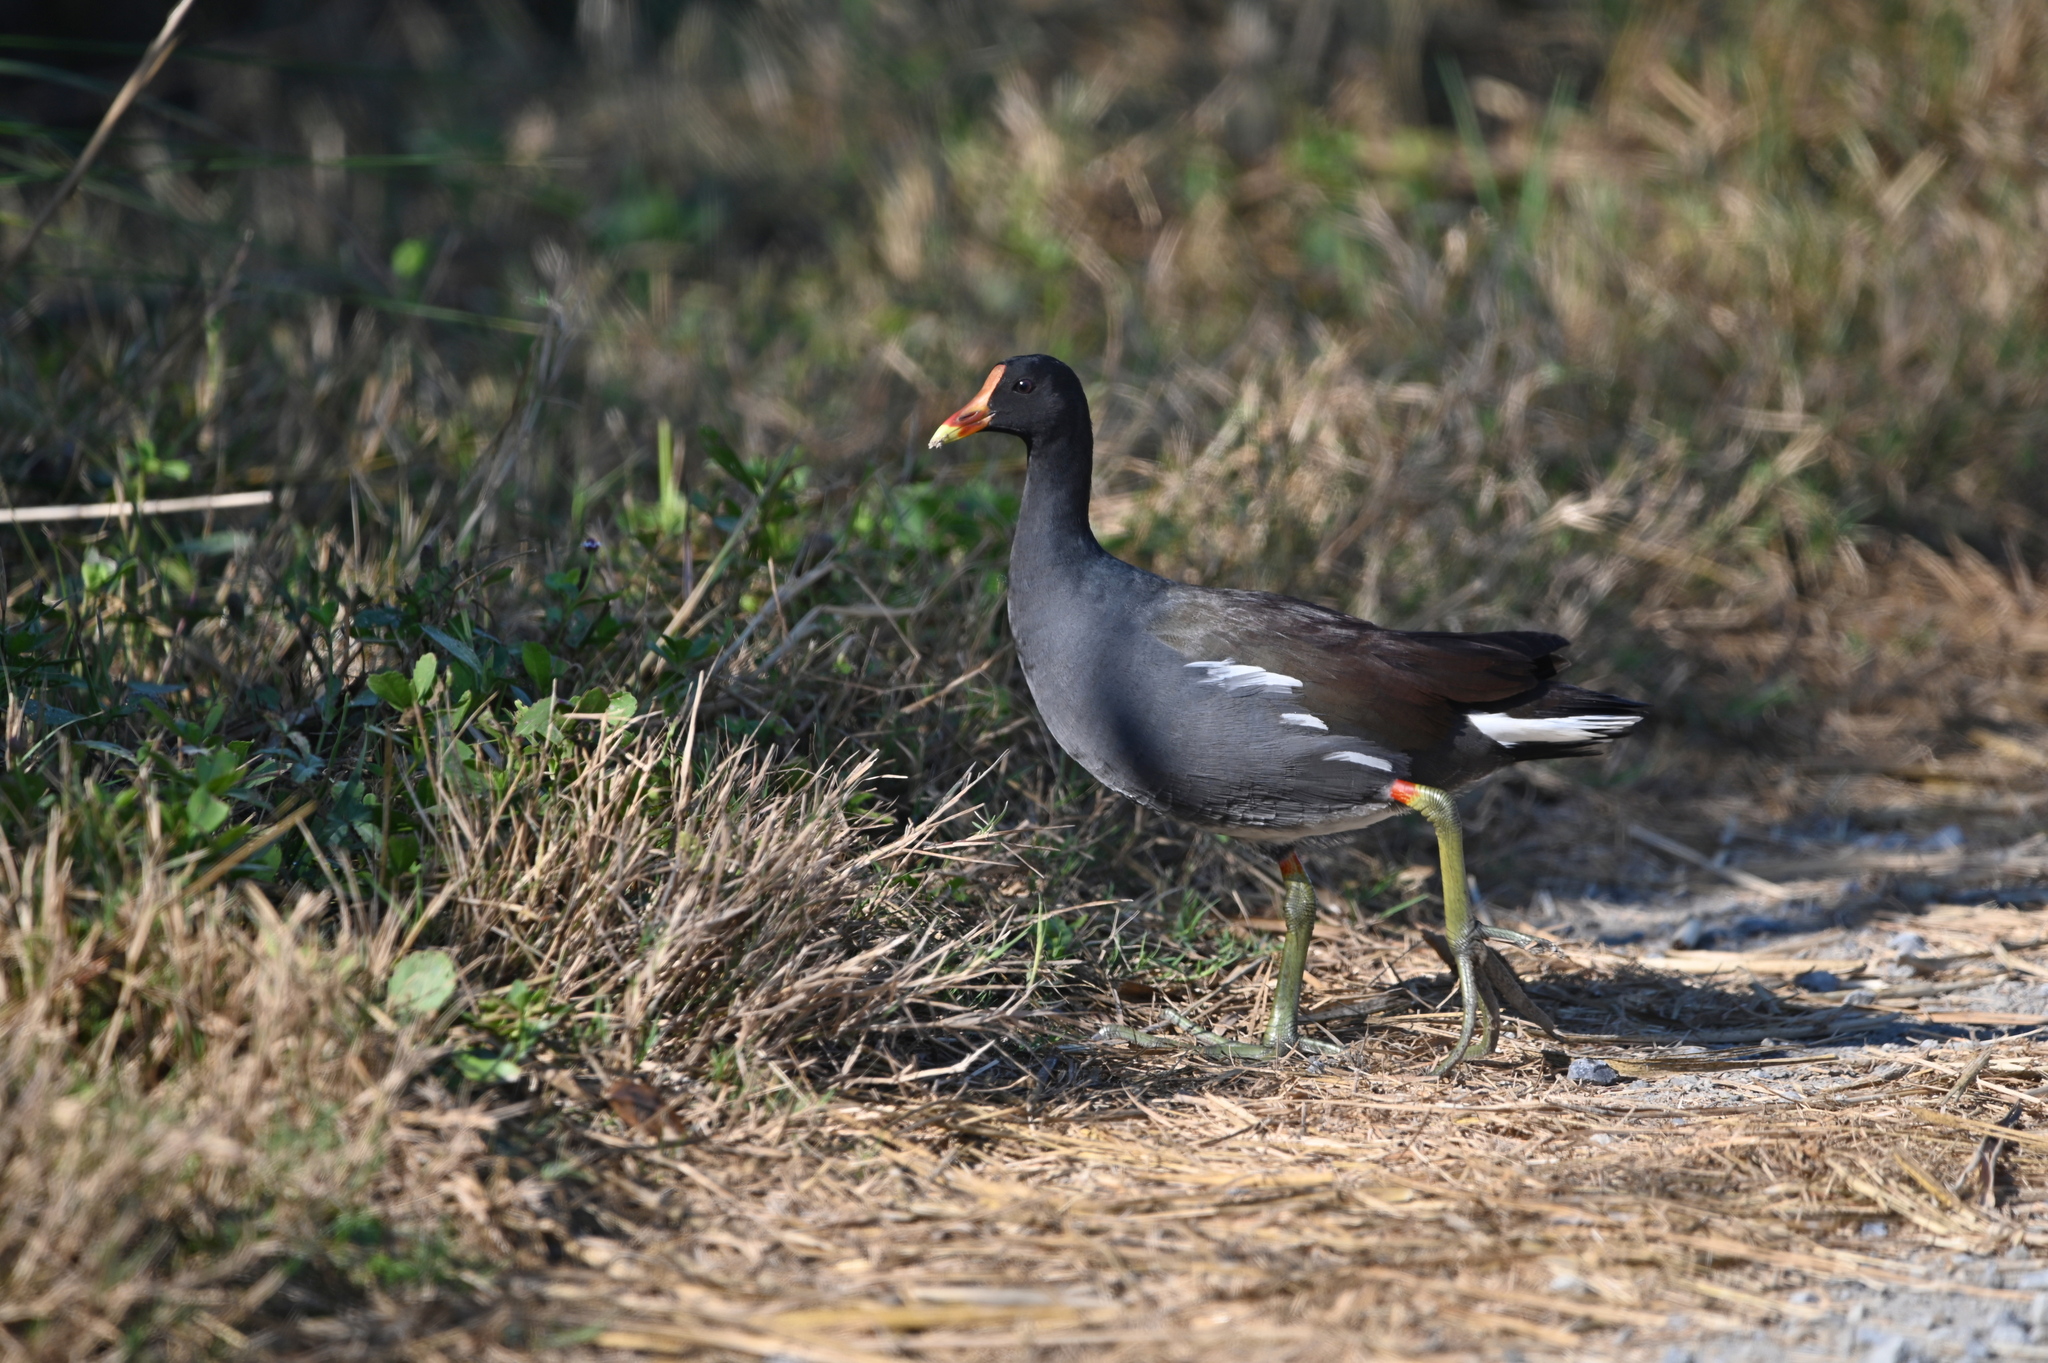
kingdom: Animalia
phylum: Chordata
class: Aves
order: Gruiformes
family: Rallidae
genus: Gallinula
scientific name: Gallinula chloropus
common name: Common moorhen
